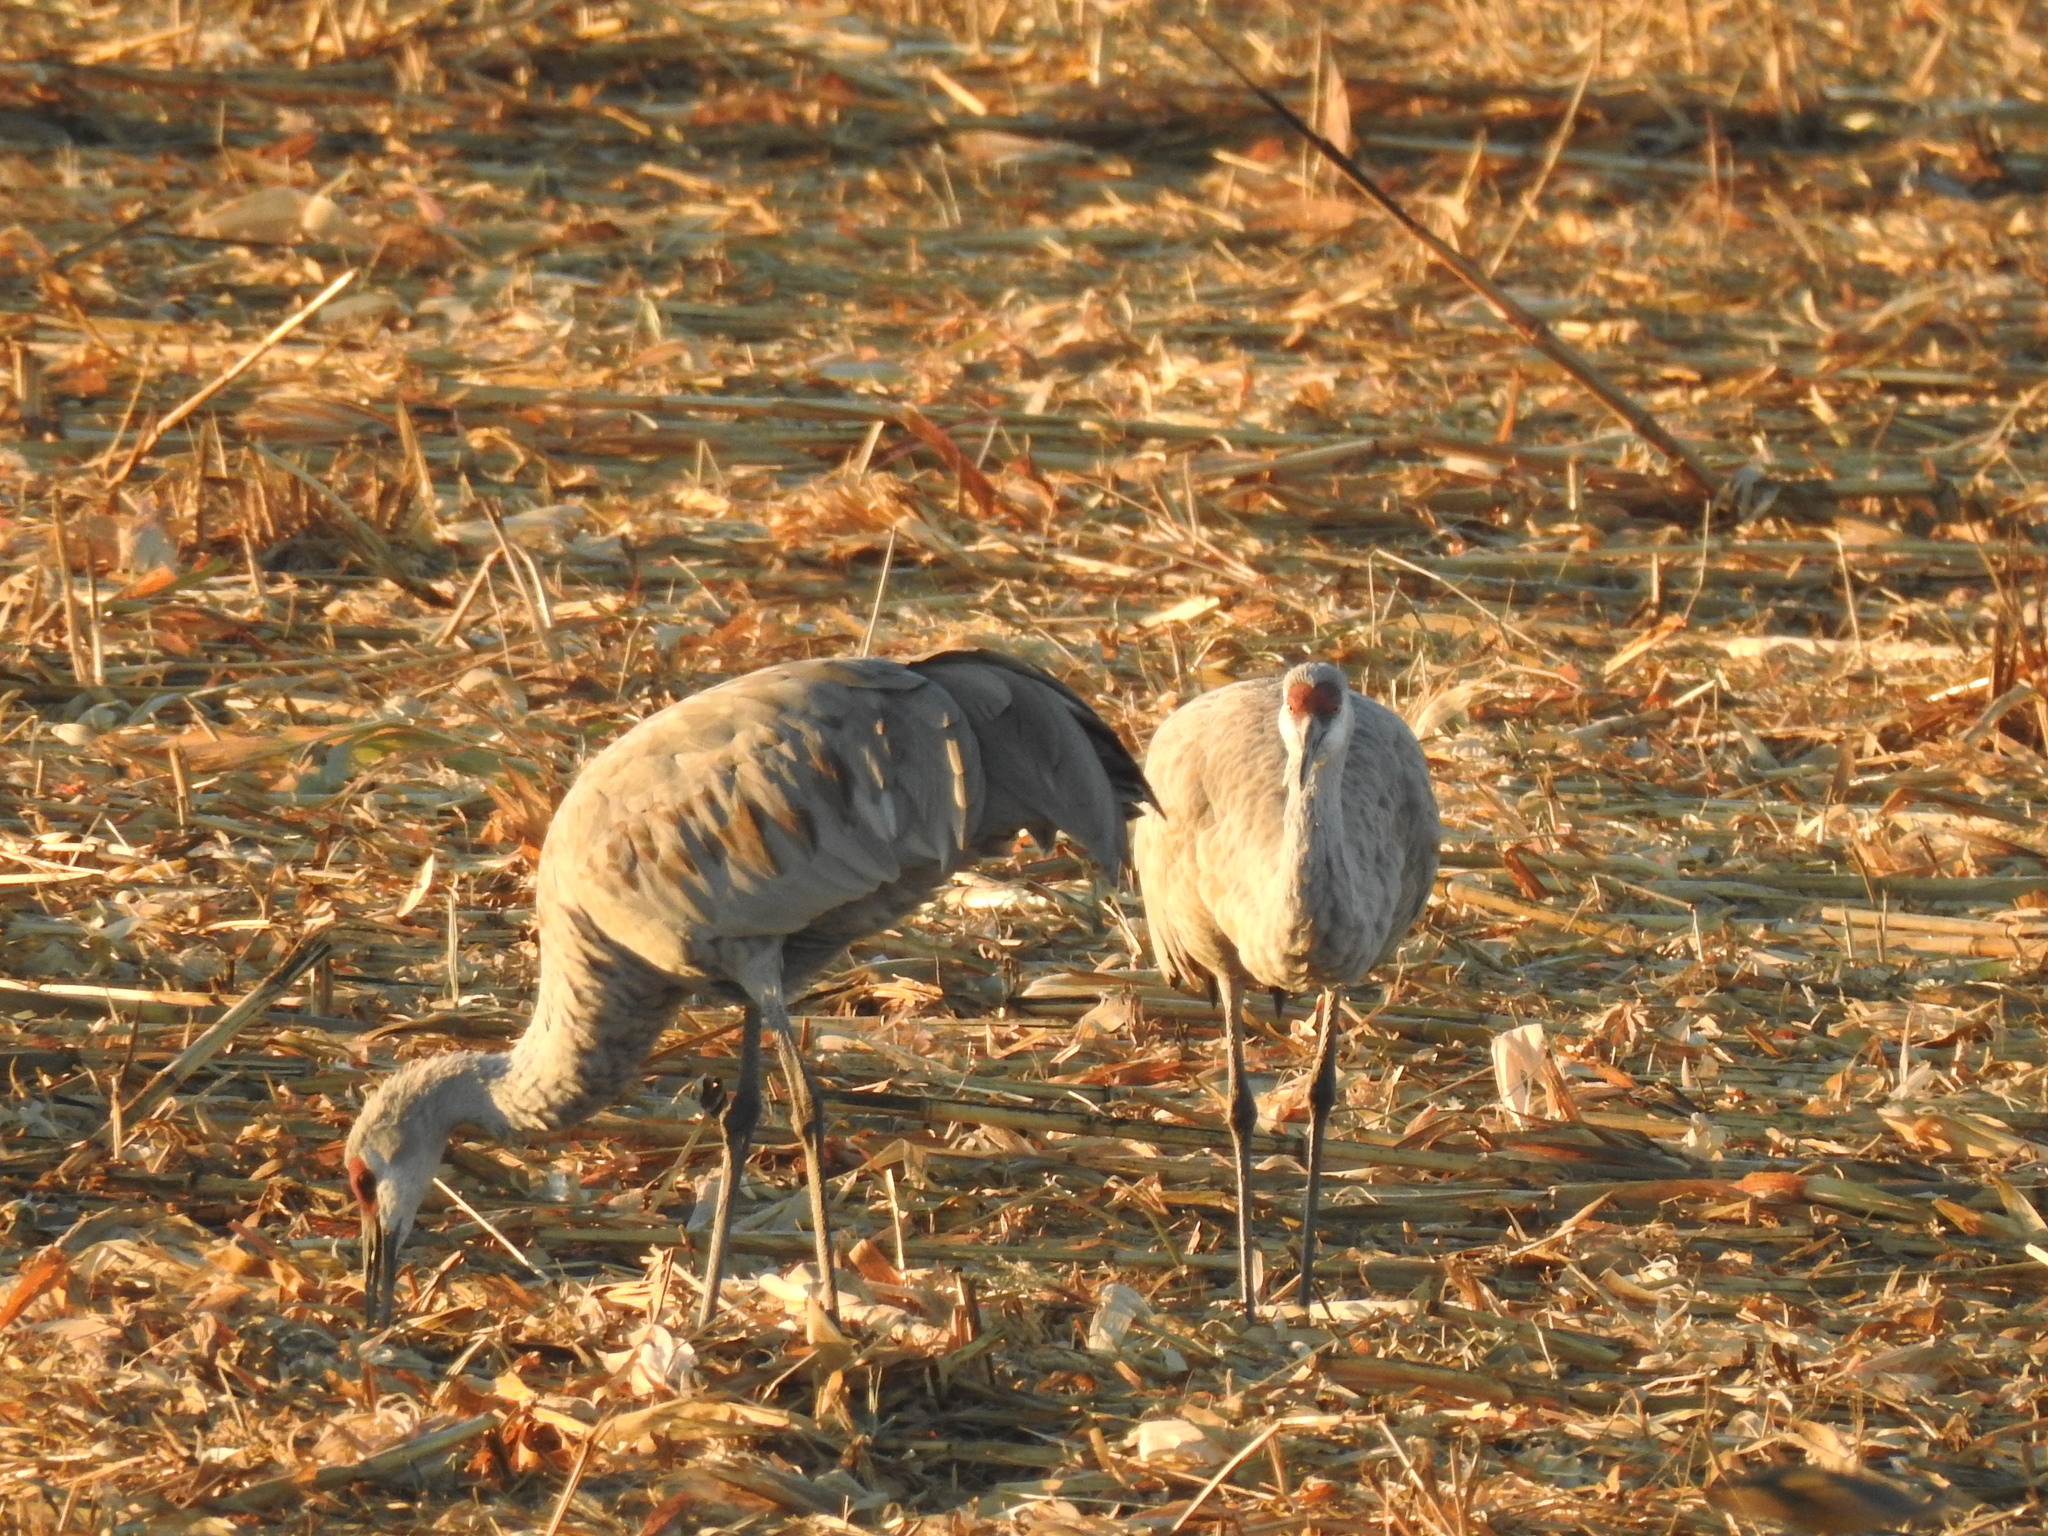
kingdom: Animalia
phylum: Chordata
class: Aves
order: Gruiformes
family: Gruidae
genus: Grus
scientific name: Grus canadensis
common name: Sandhill crane
